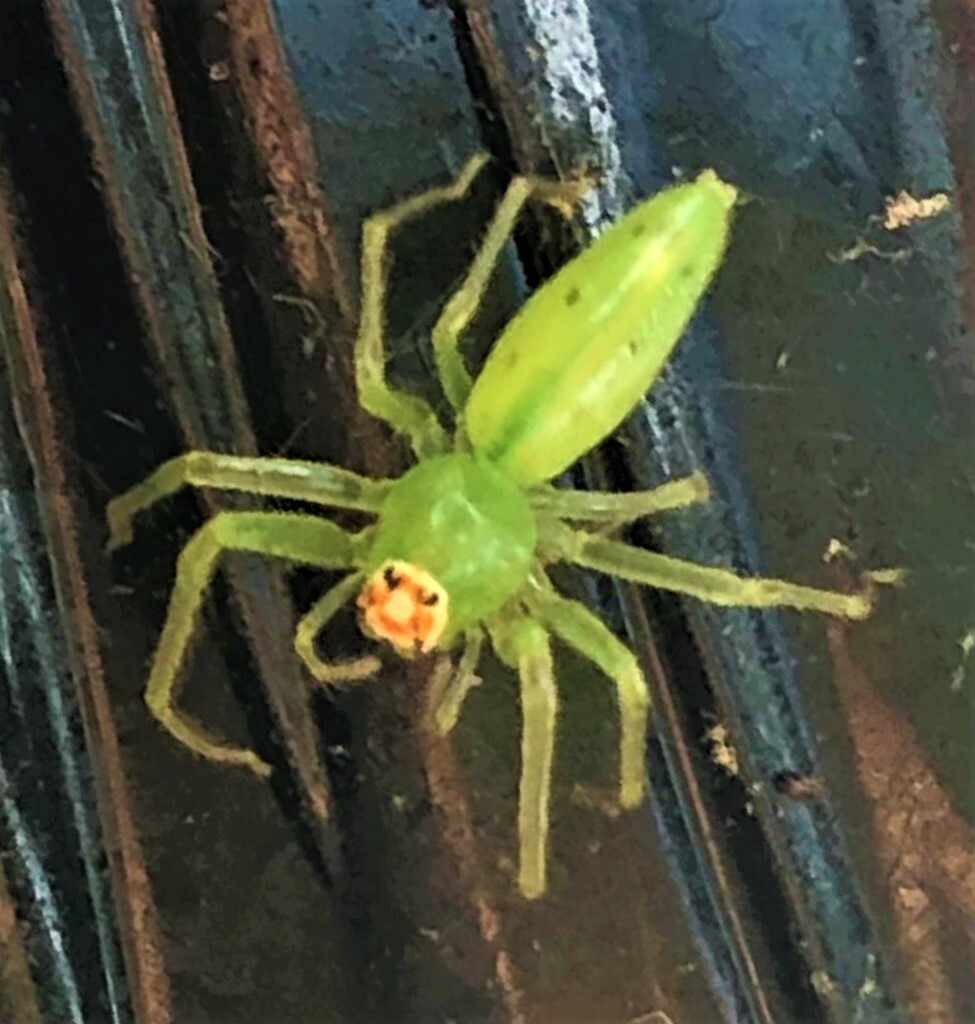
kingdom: Animalia
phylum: Arthropoda
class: Arachnida
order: Araneae
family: Salticidae
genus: Lyssomanes
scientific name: Lyssomanes viridis
